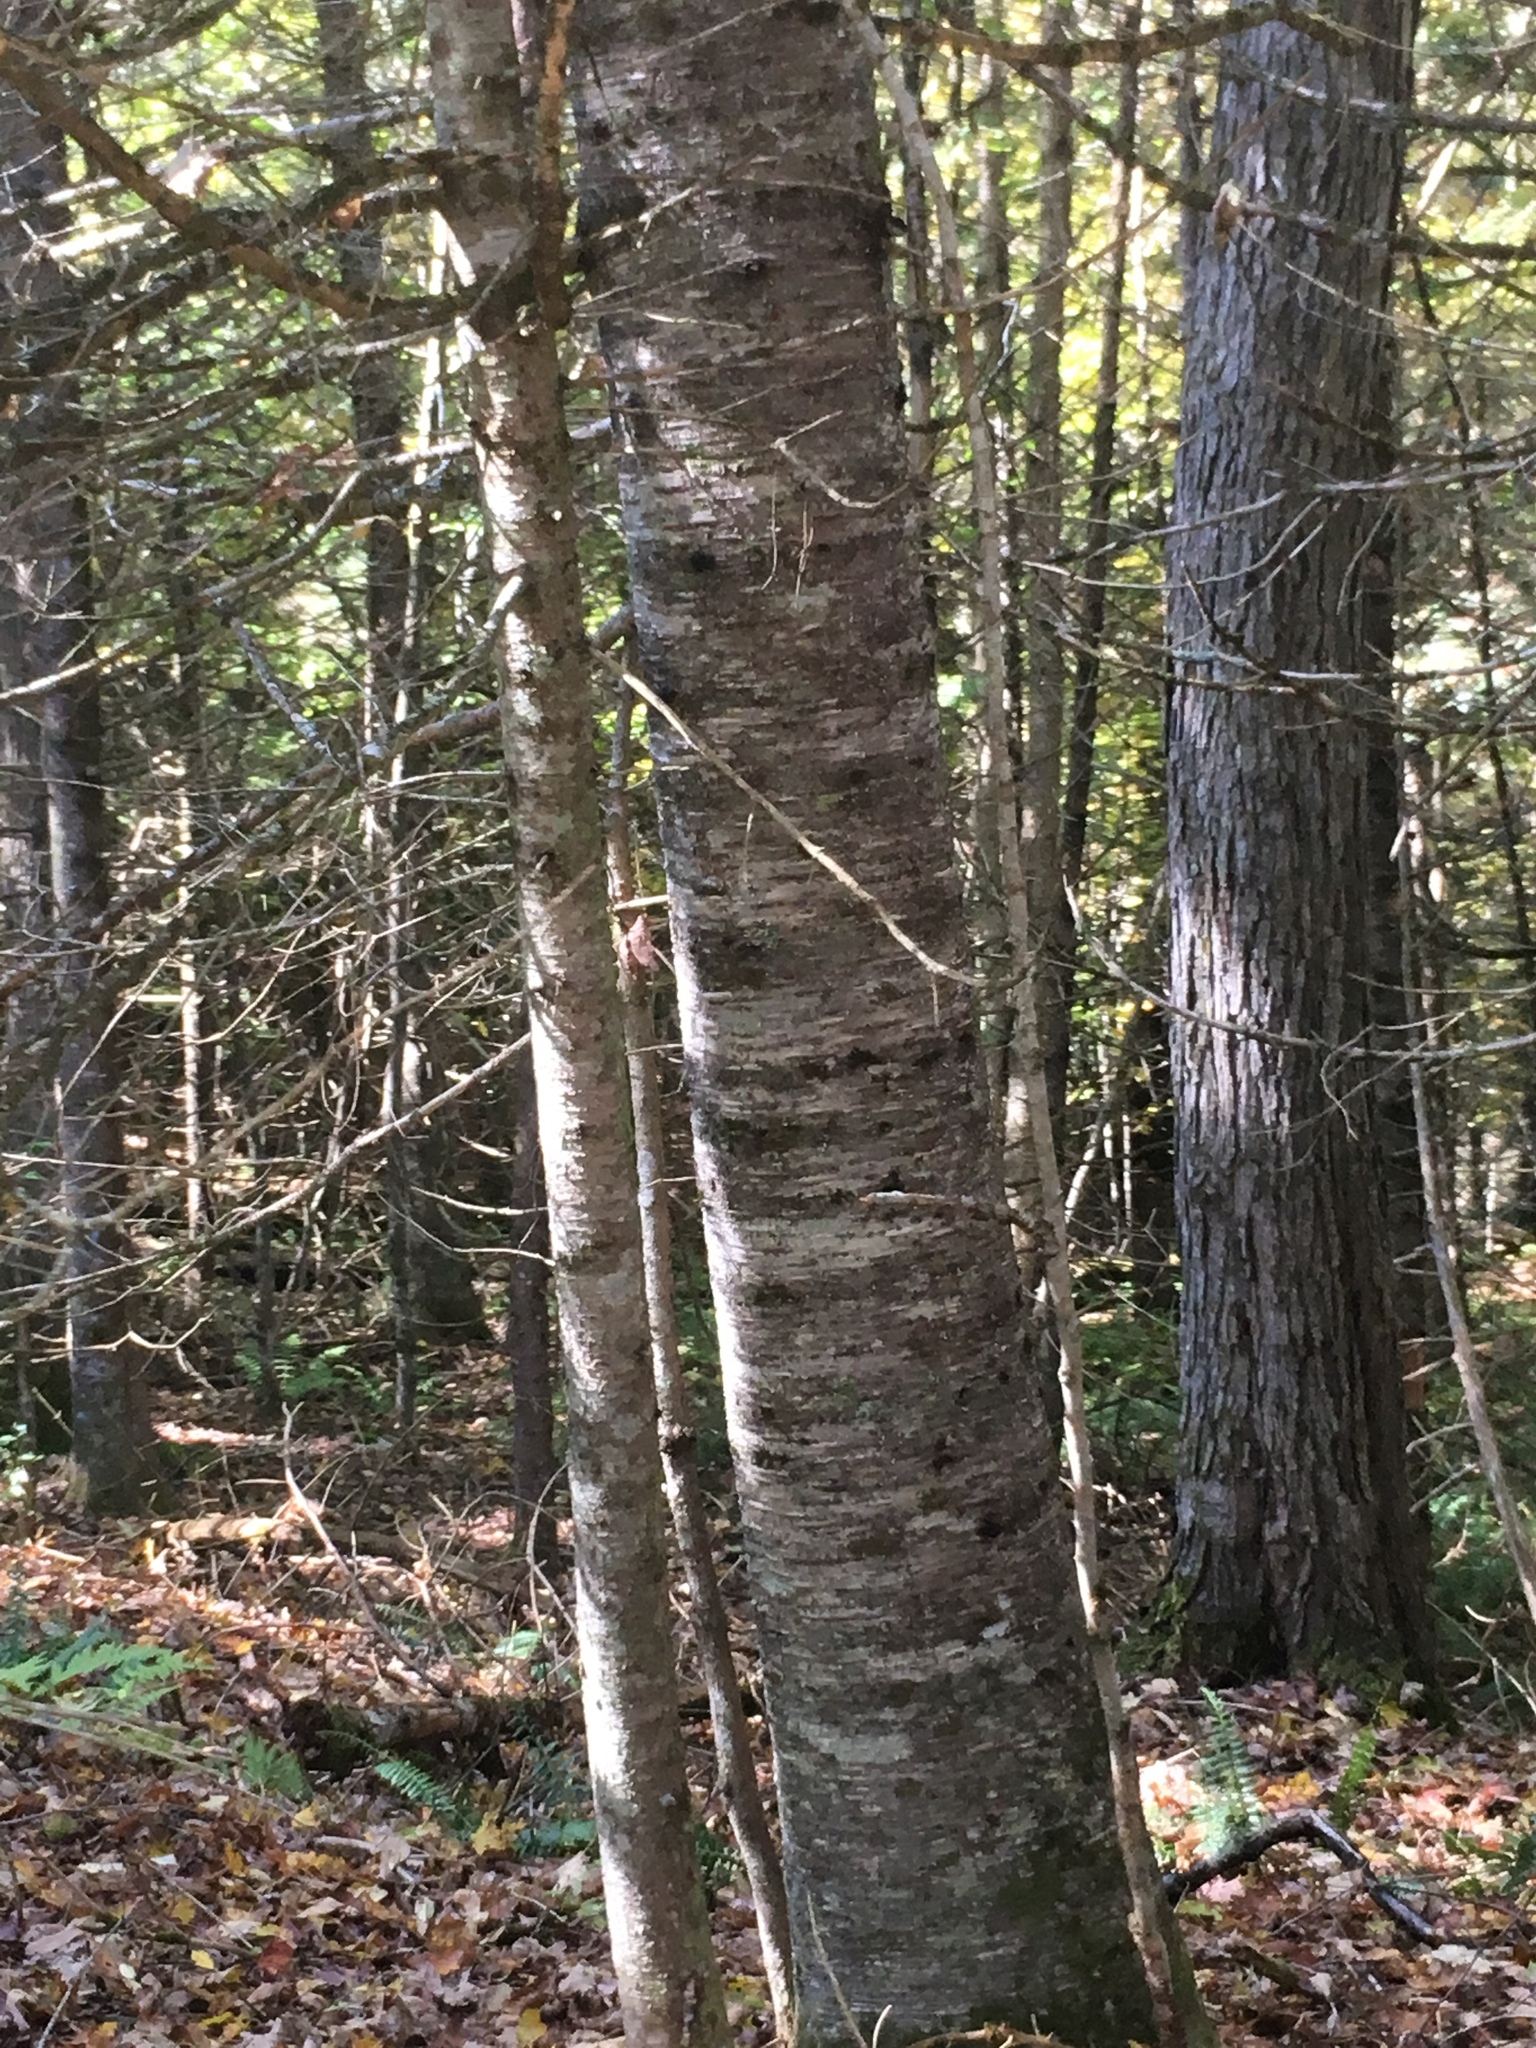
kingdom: Plantae
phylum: Tracheophyta
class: Pinopsida
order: Pinales
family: Pinaceae
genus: Abies
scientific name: Abies balsamea
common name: Balsam fir
